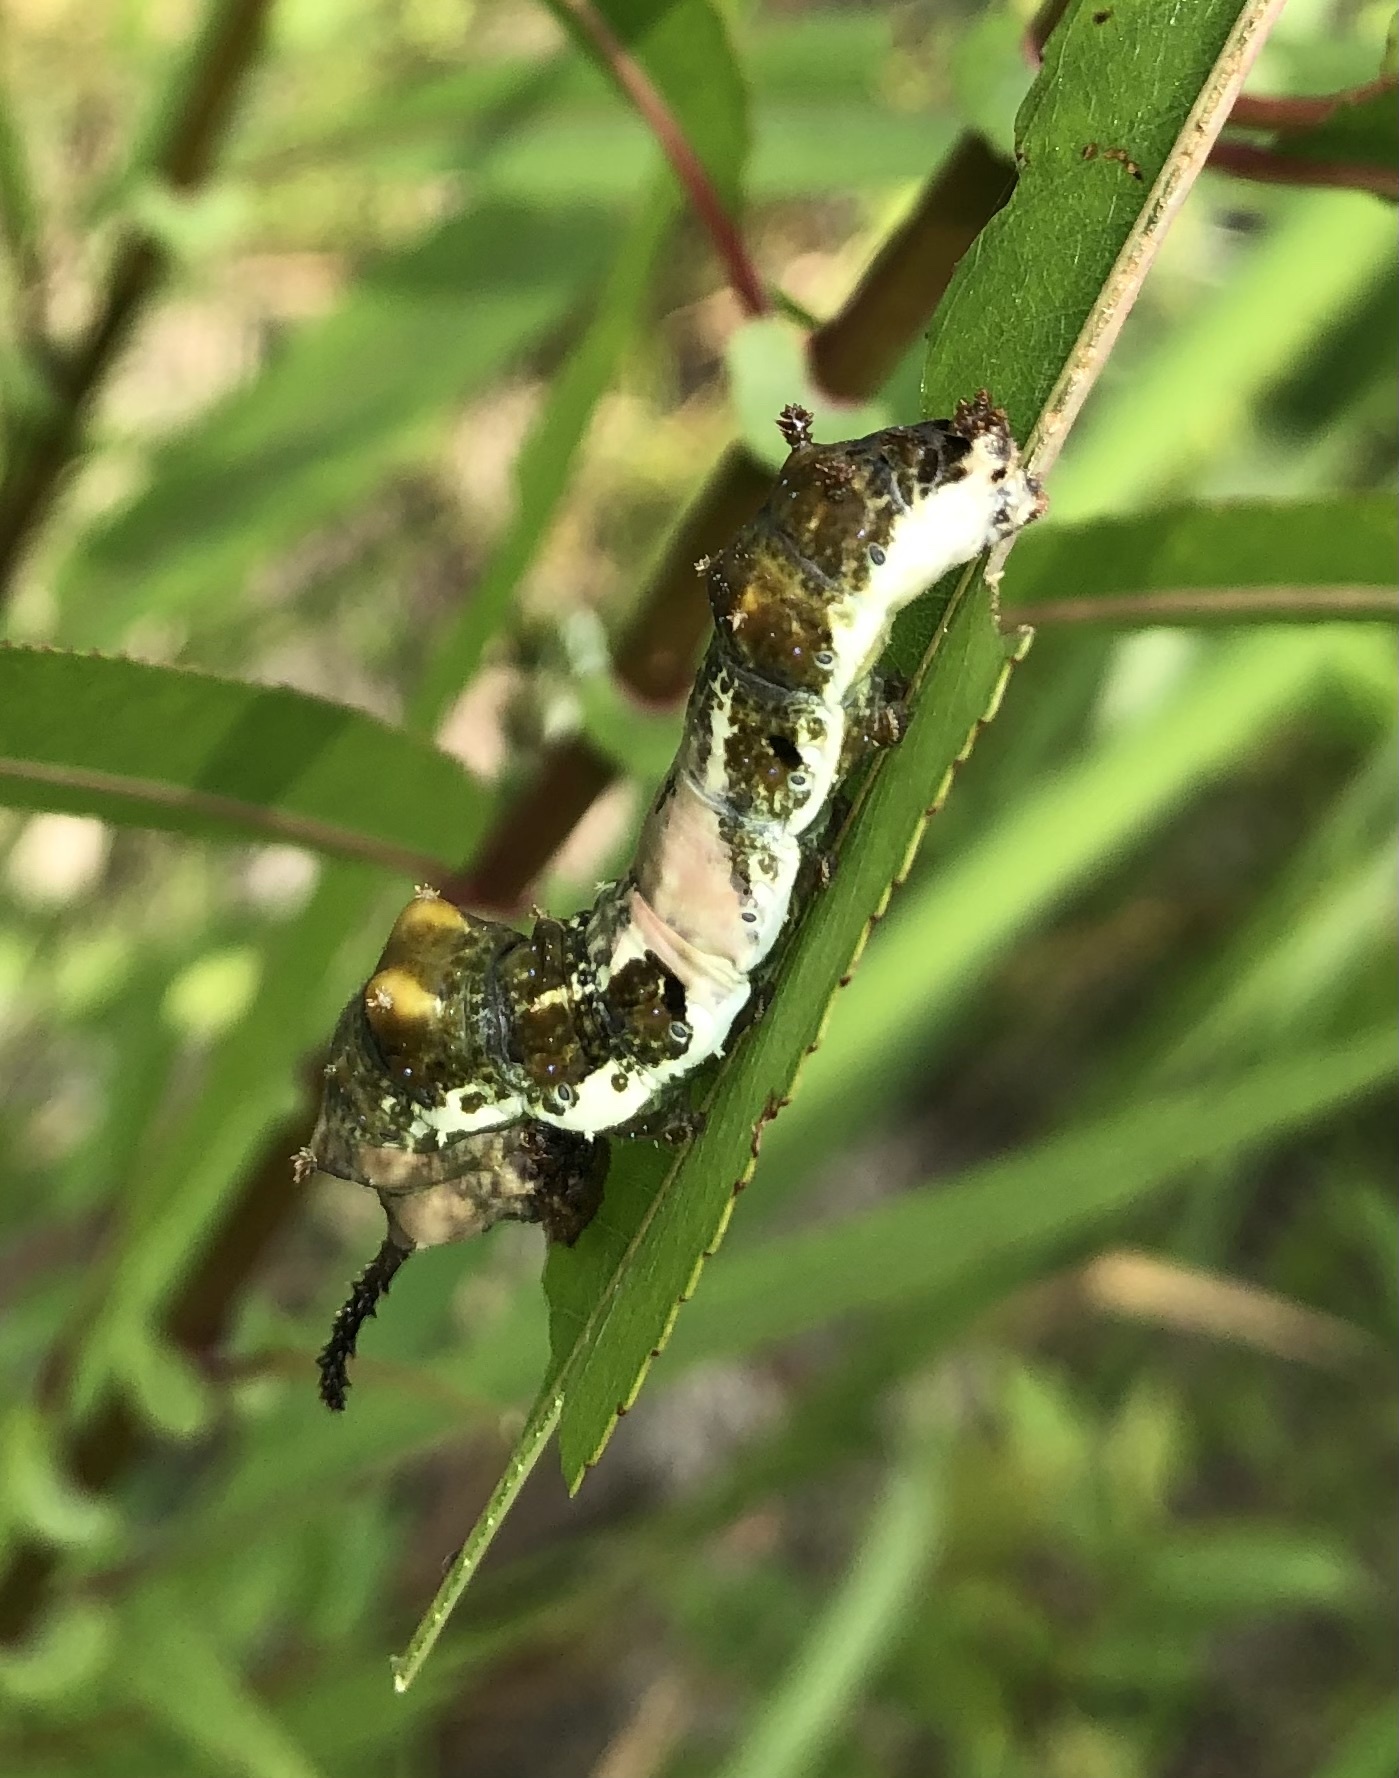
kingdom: Animalia
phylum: Arthropoda
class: Insecta
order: Lepidoptera
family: Nymphalidae
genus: Limenitis
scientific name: Limenitis archippus
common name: Viceroy
